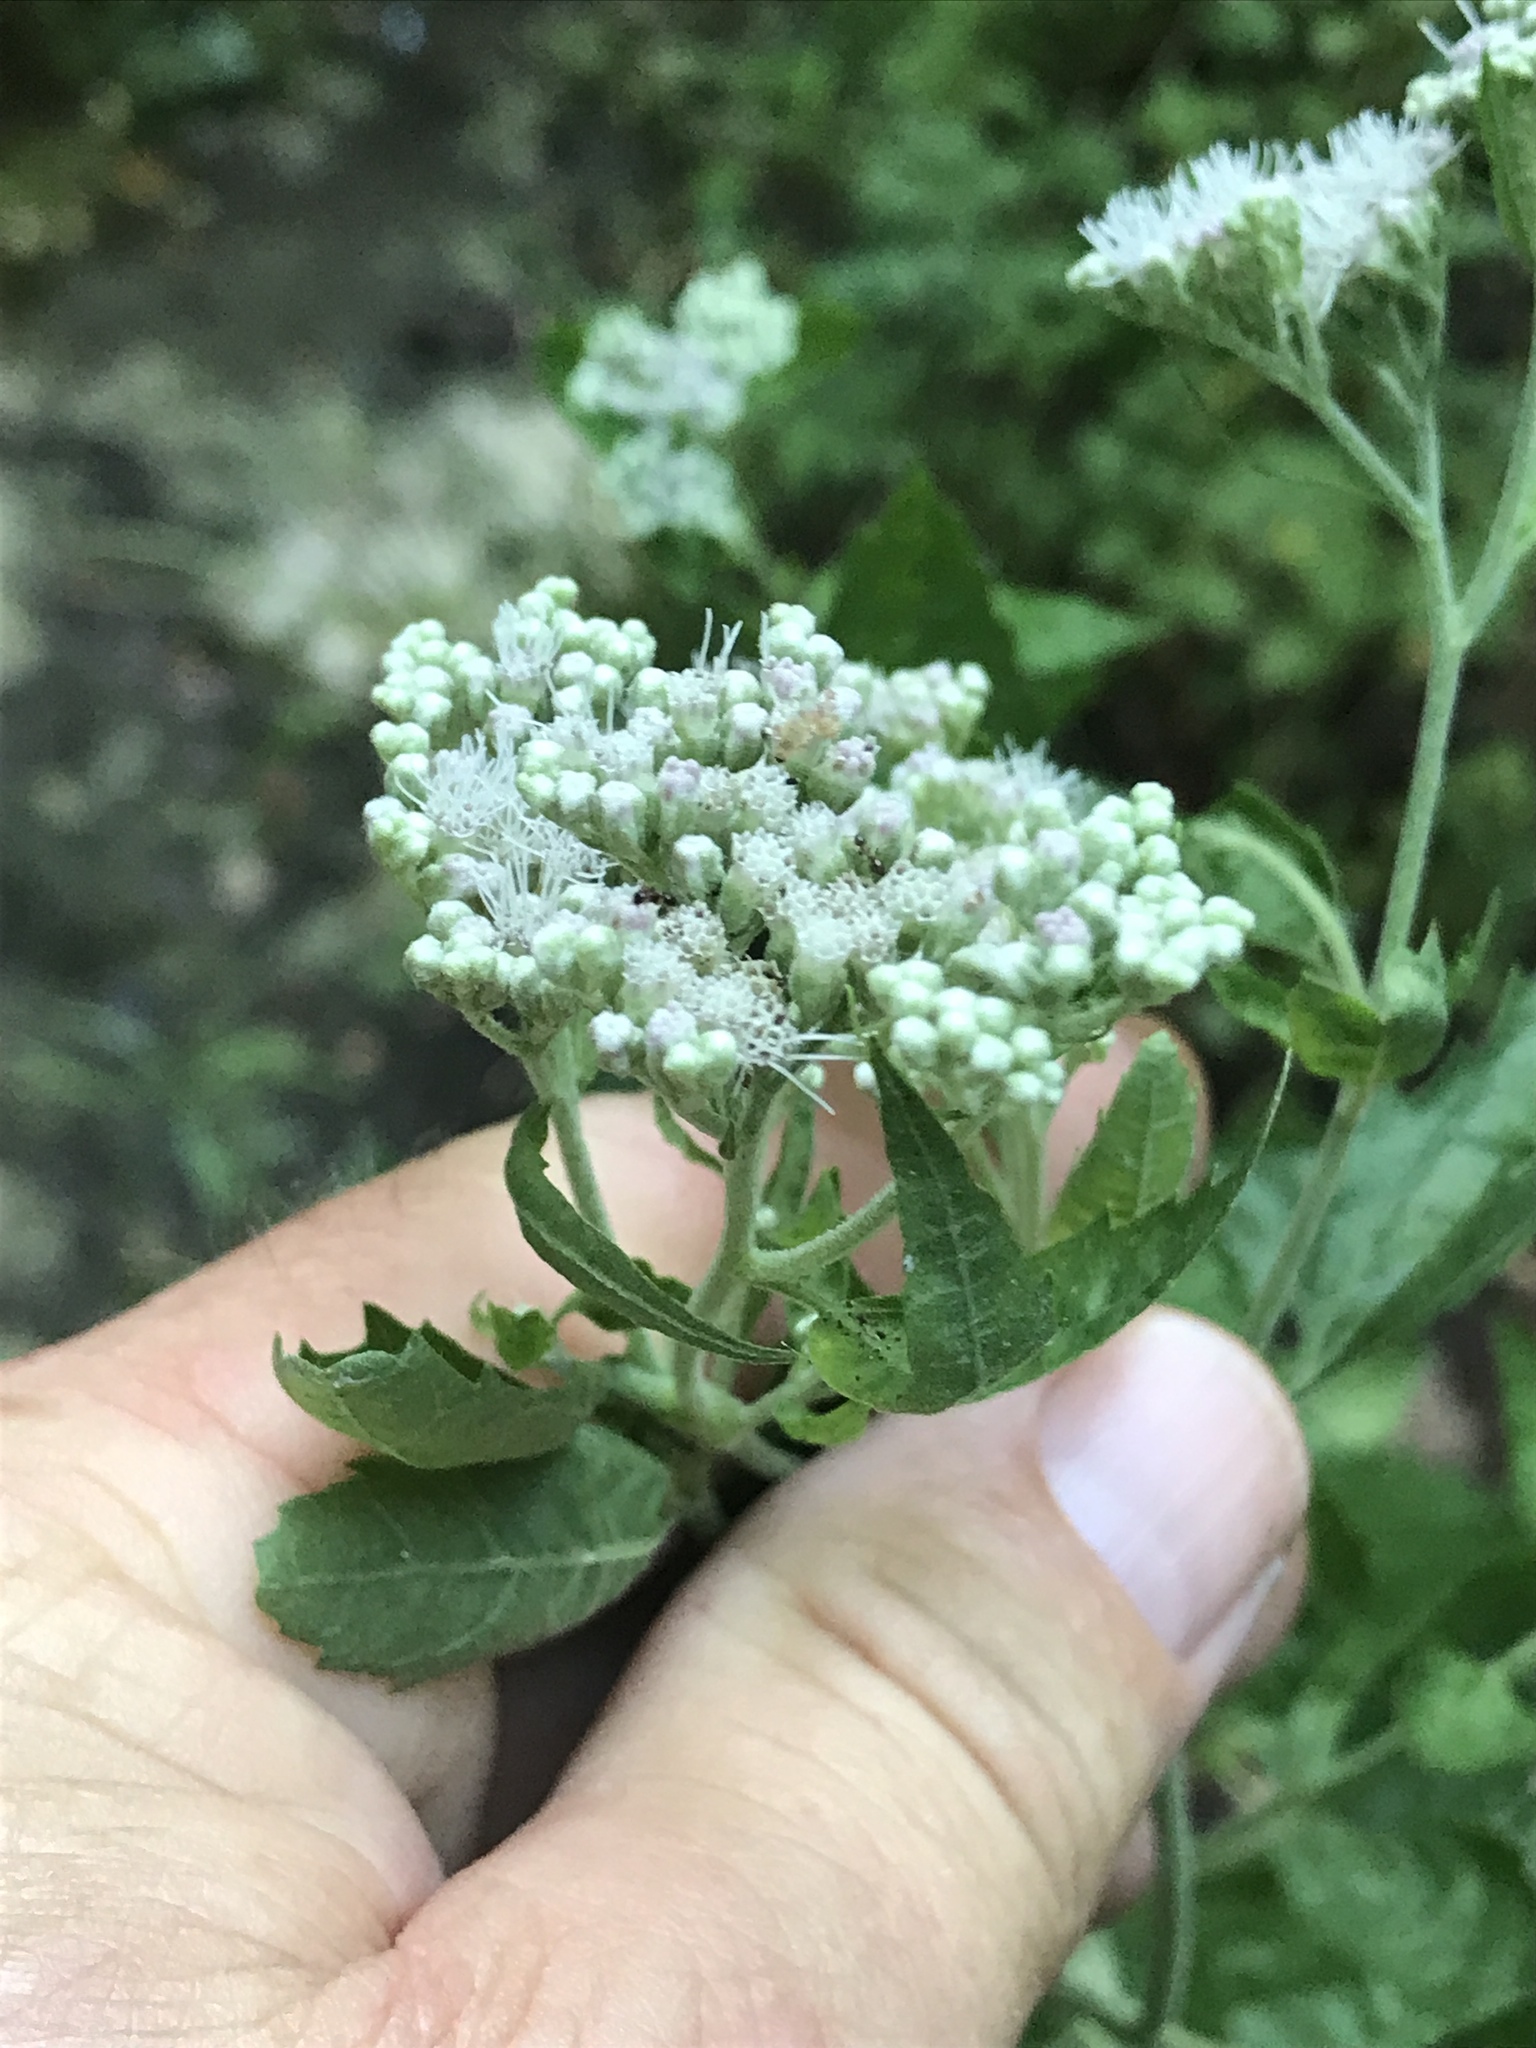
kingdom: Plantae
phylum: Tracheophyta
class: Magnoliopsida
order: Asterales
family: Asteraceae
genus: Eupatorium
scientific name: Eupatorium serotinum
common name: Late boneset
